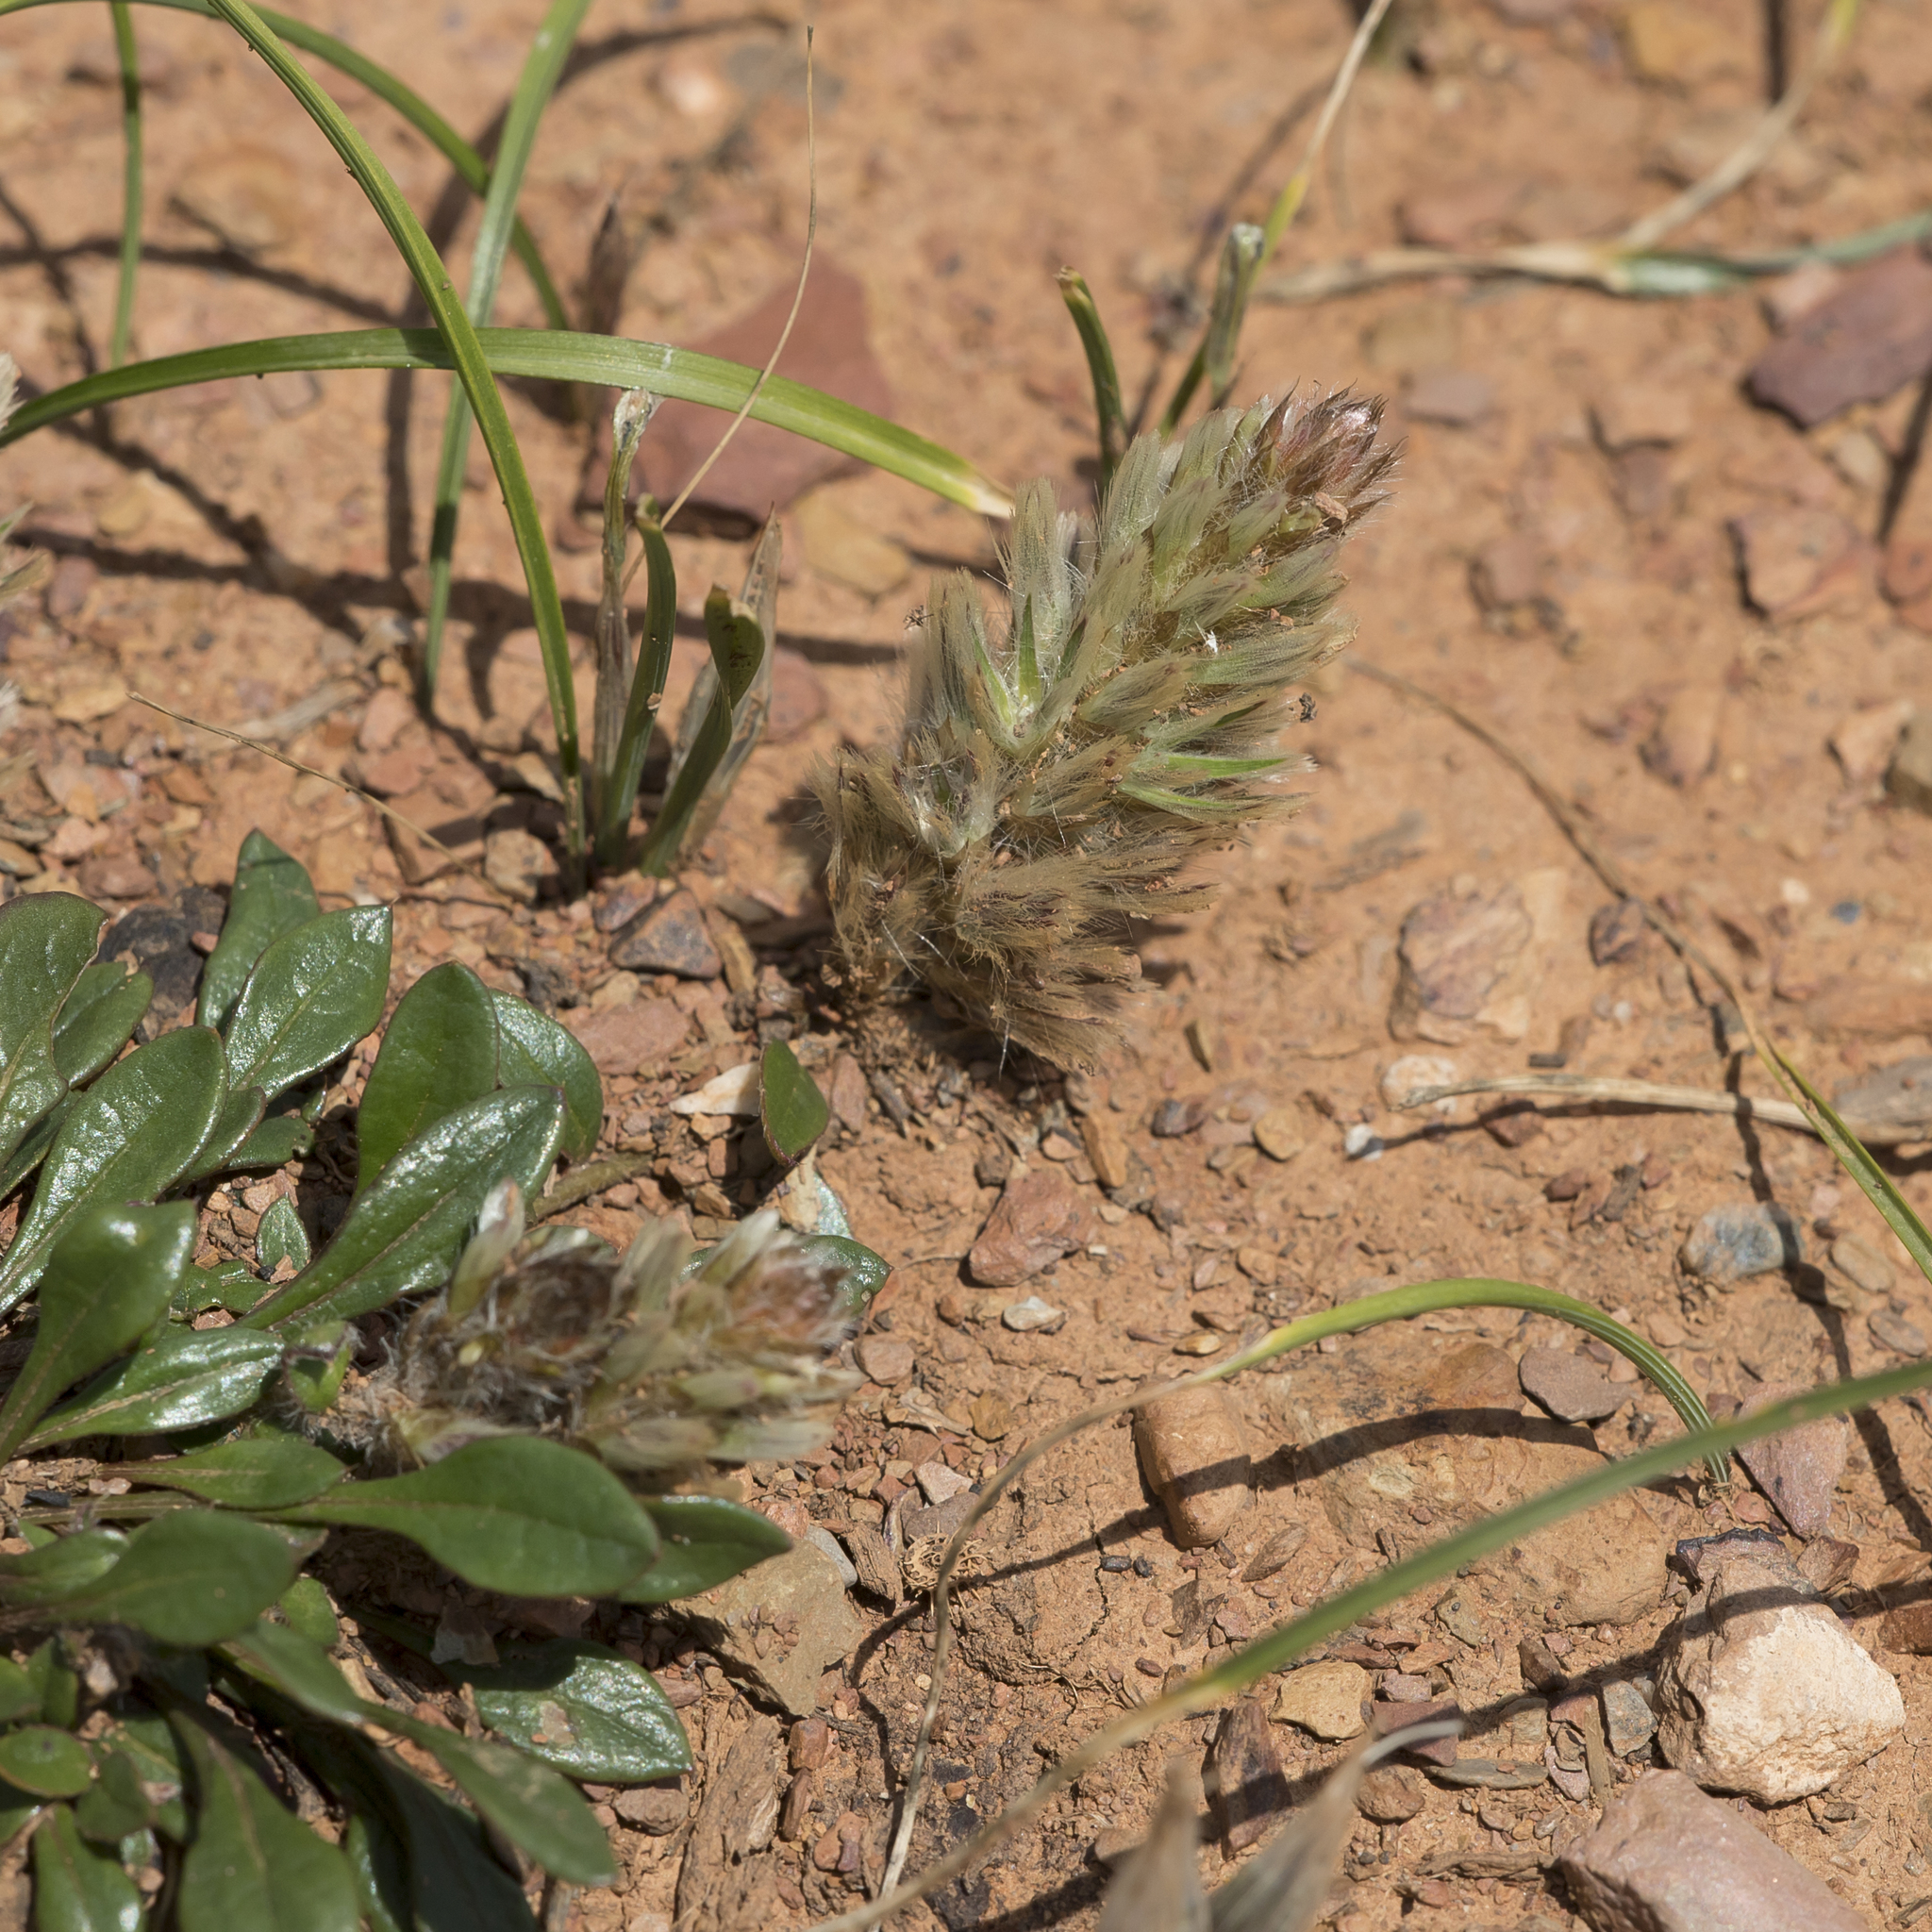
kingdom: Plantae
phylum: Tracheophyta
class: Magnoliopsida
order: Caryophyllales
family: Amaranthaceae
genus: Ptilotus
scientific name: Ptilotus spathulatus
